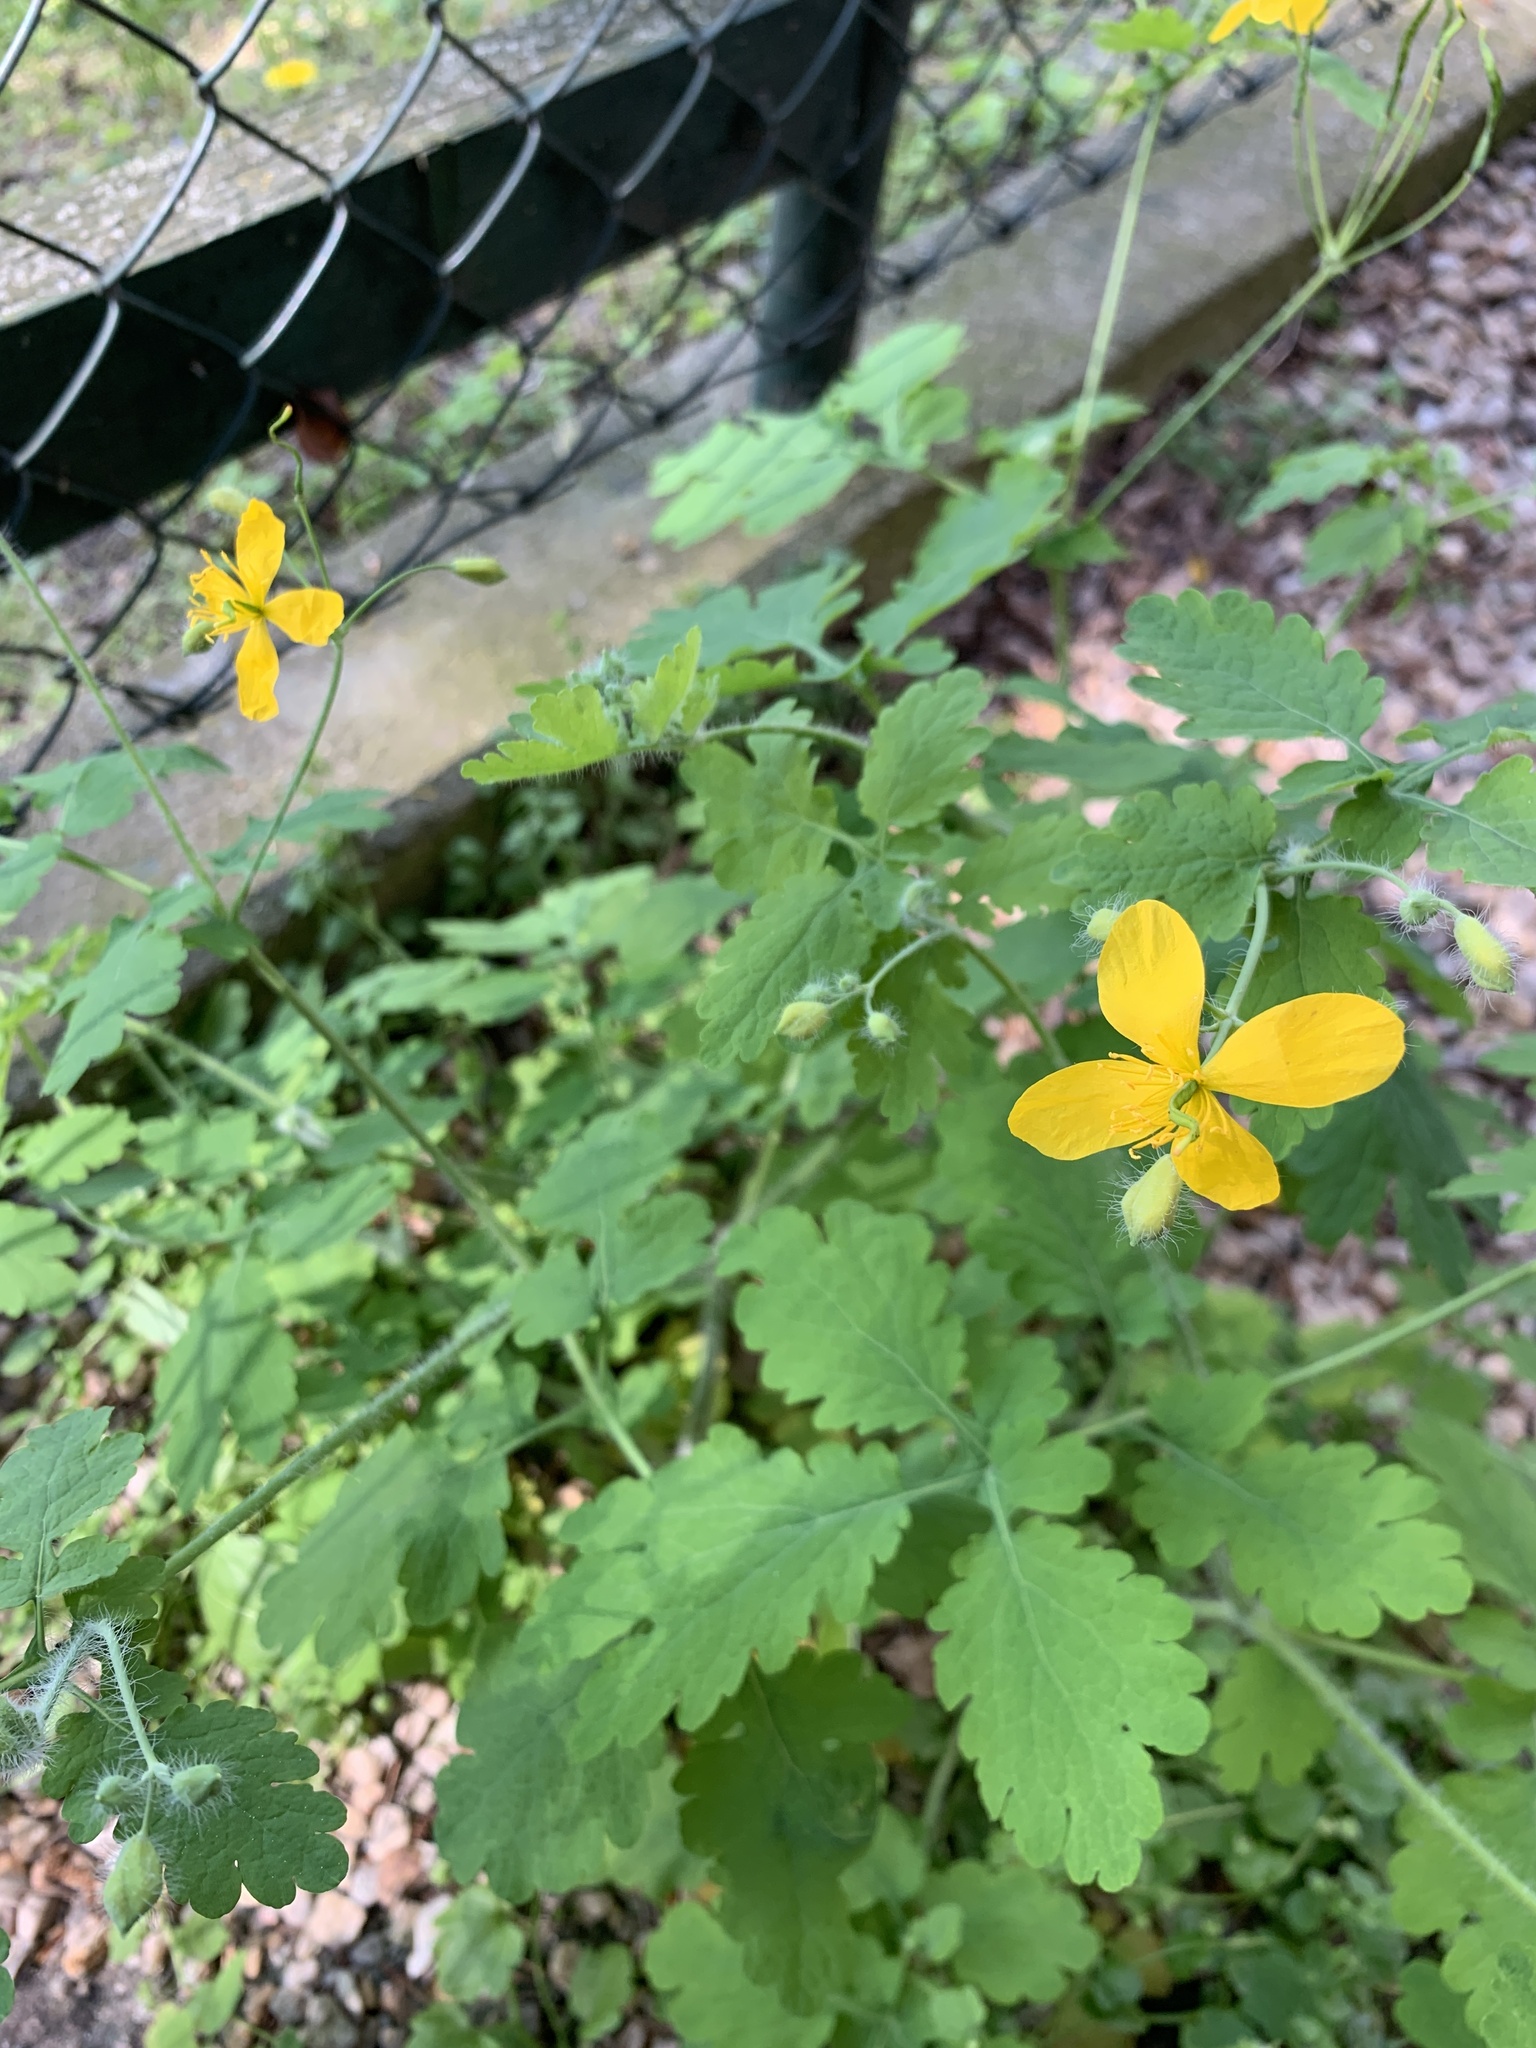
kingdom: Plantae
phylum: Tracheophyta
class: Magnoliopsida
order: Ranunculales
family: Papaveraceae
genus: Chelidonium
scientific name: Chelidonium majus
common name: Greater celandine
